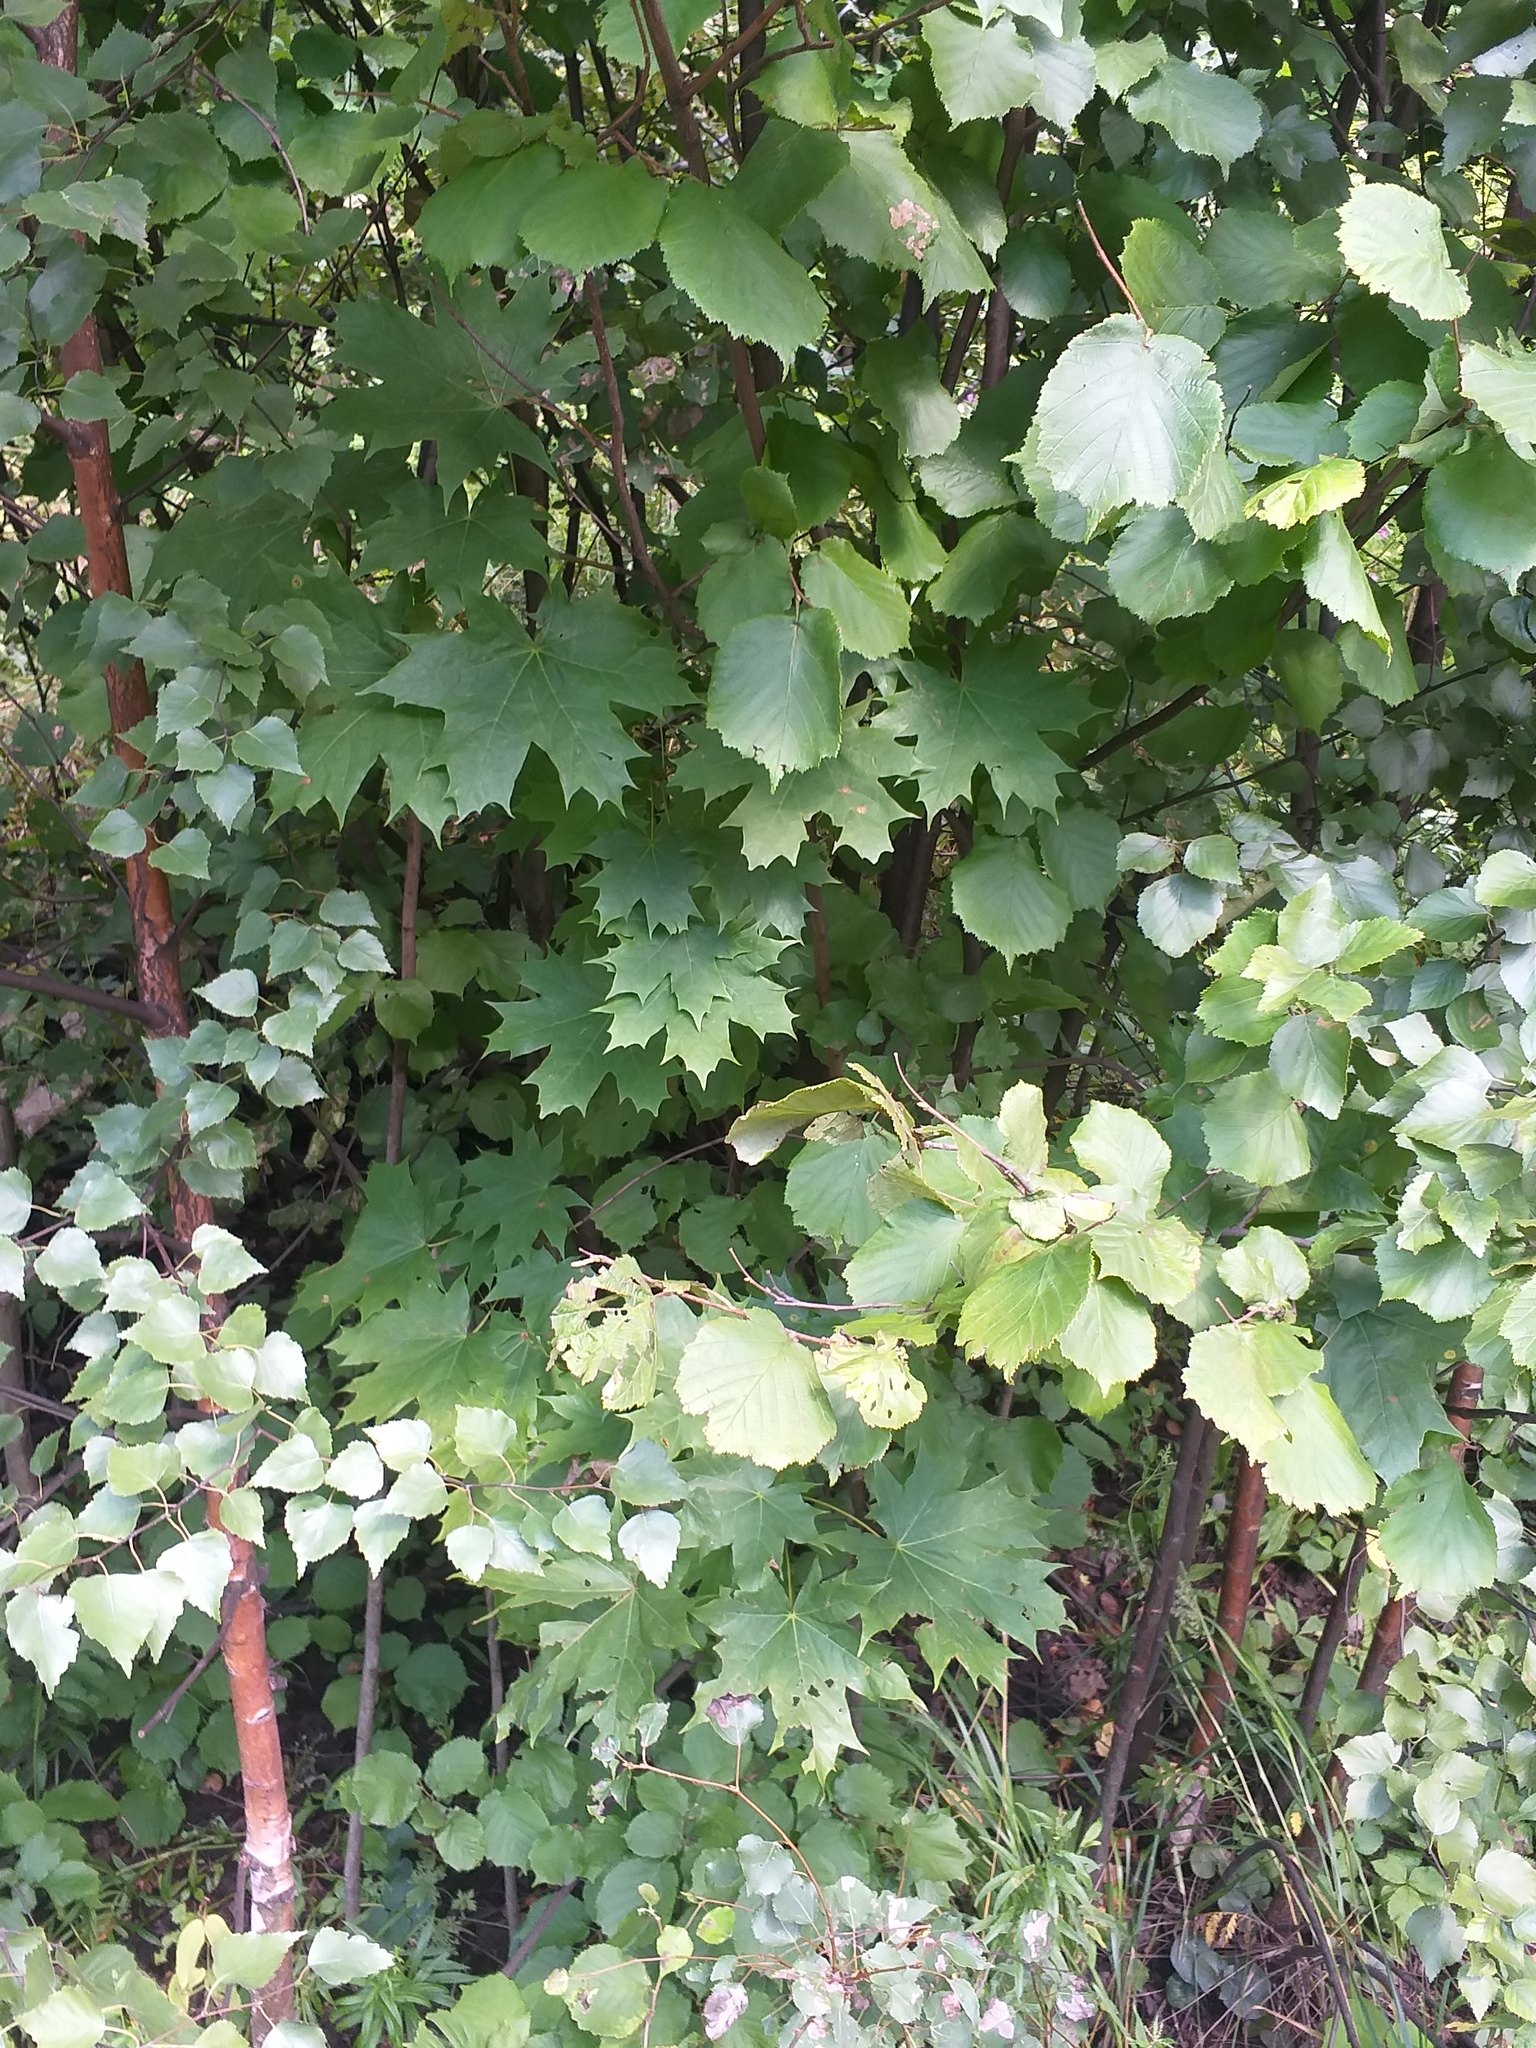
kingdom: Plantae
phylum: Tracheophyta
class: Magnoliopsida
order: Sapindales
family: Sapindaceae
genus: Acer
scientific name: Acer platanoides
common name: Norway maple
